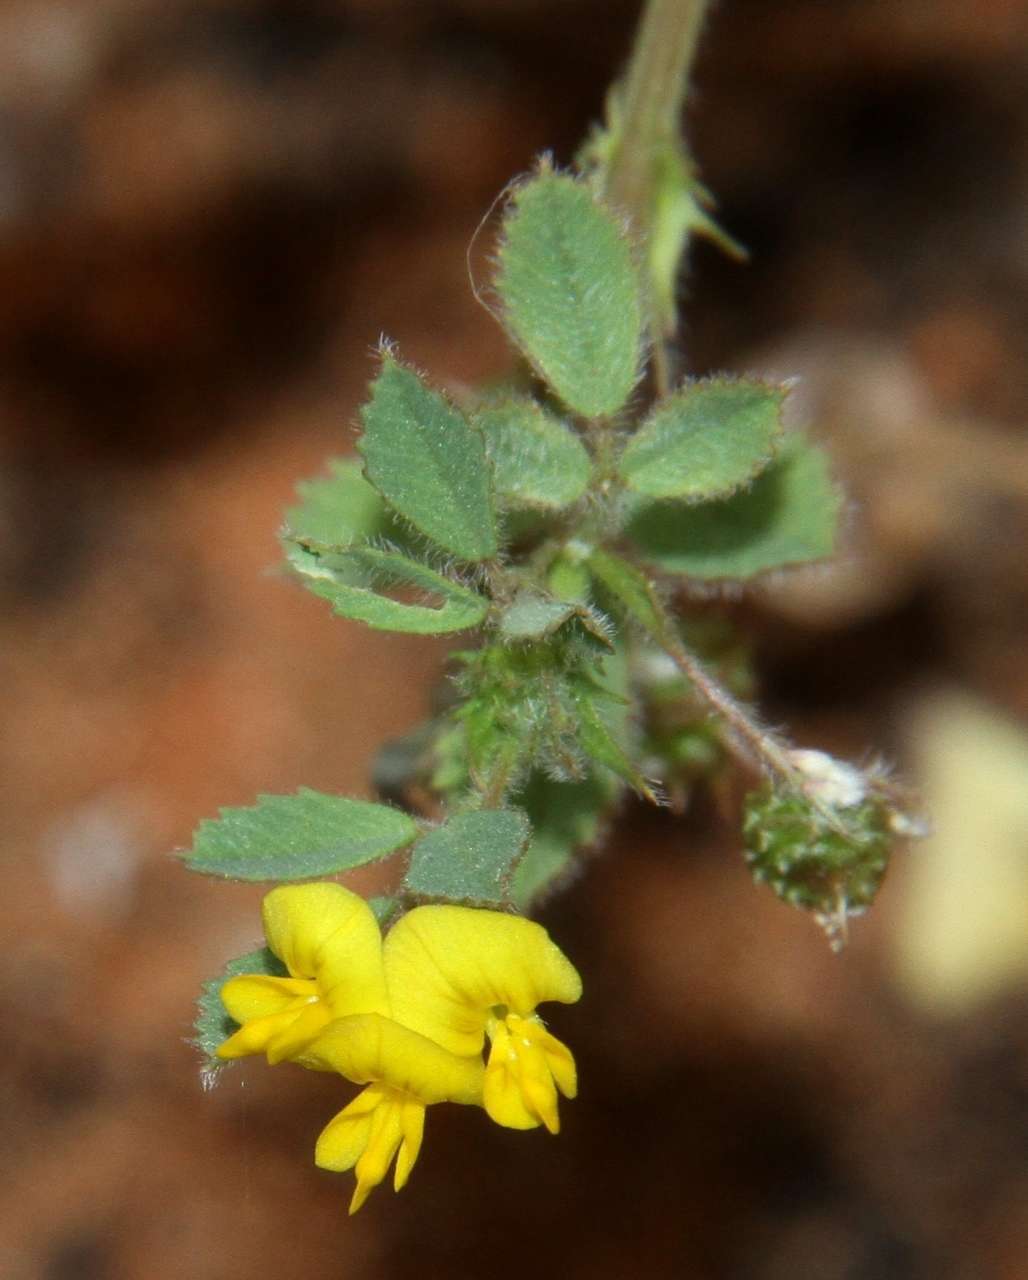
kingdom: Plantae
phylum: Tracheophyta
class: Magnoliopsida
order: Fabales
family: Fabaceae
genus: Medicago
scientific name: Medicago truncatula
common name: Strong-spined medick
